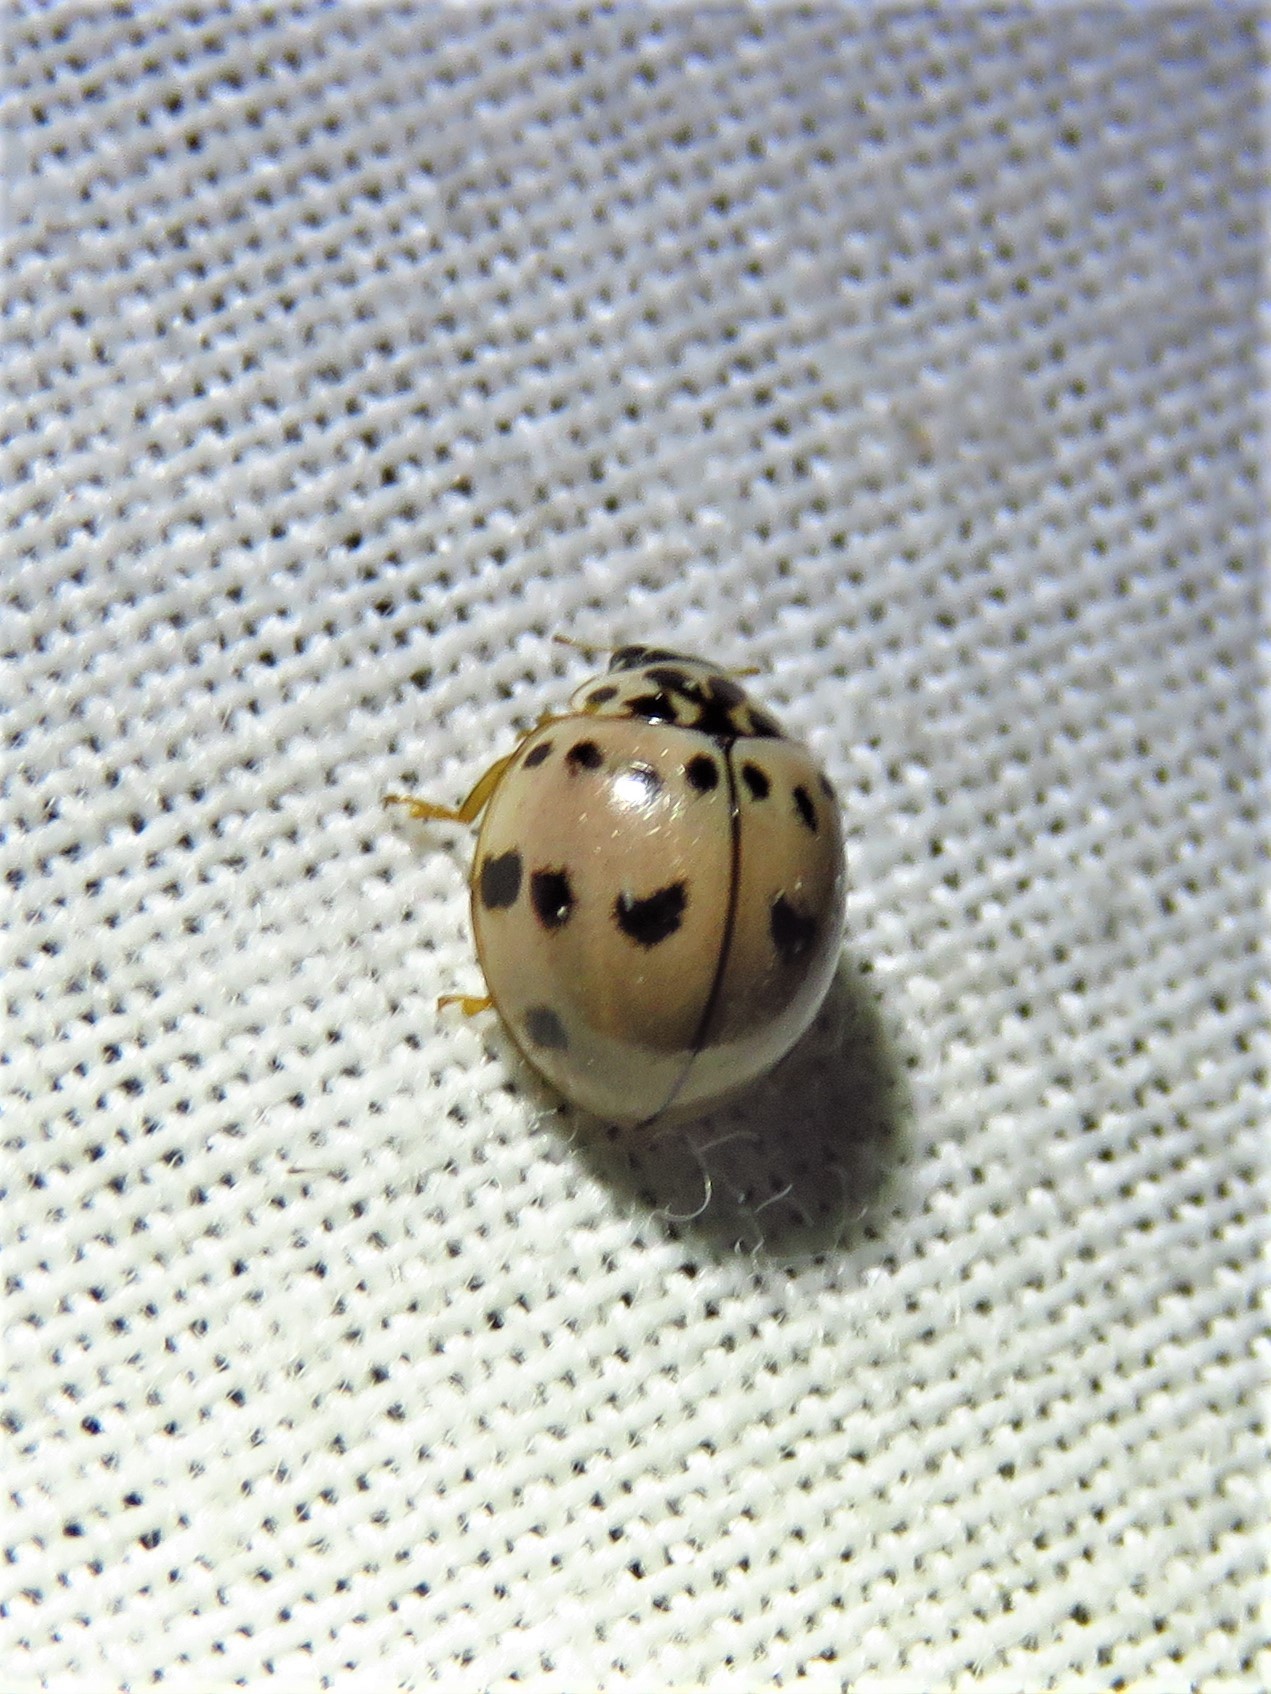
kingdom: Animalia
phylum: Arthropoda
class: Insecta
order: Coleoptera
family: Coccinellidae
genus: Olla
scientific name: Olla v-nigrum
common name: Ashy gray lady beetle
